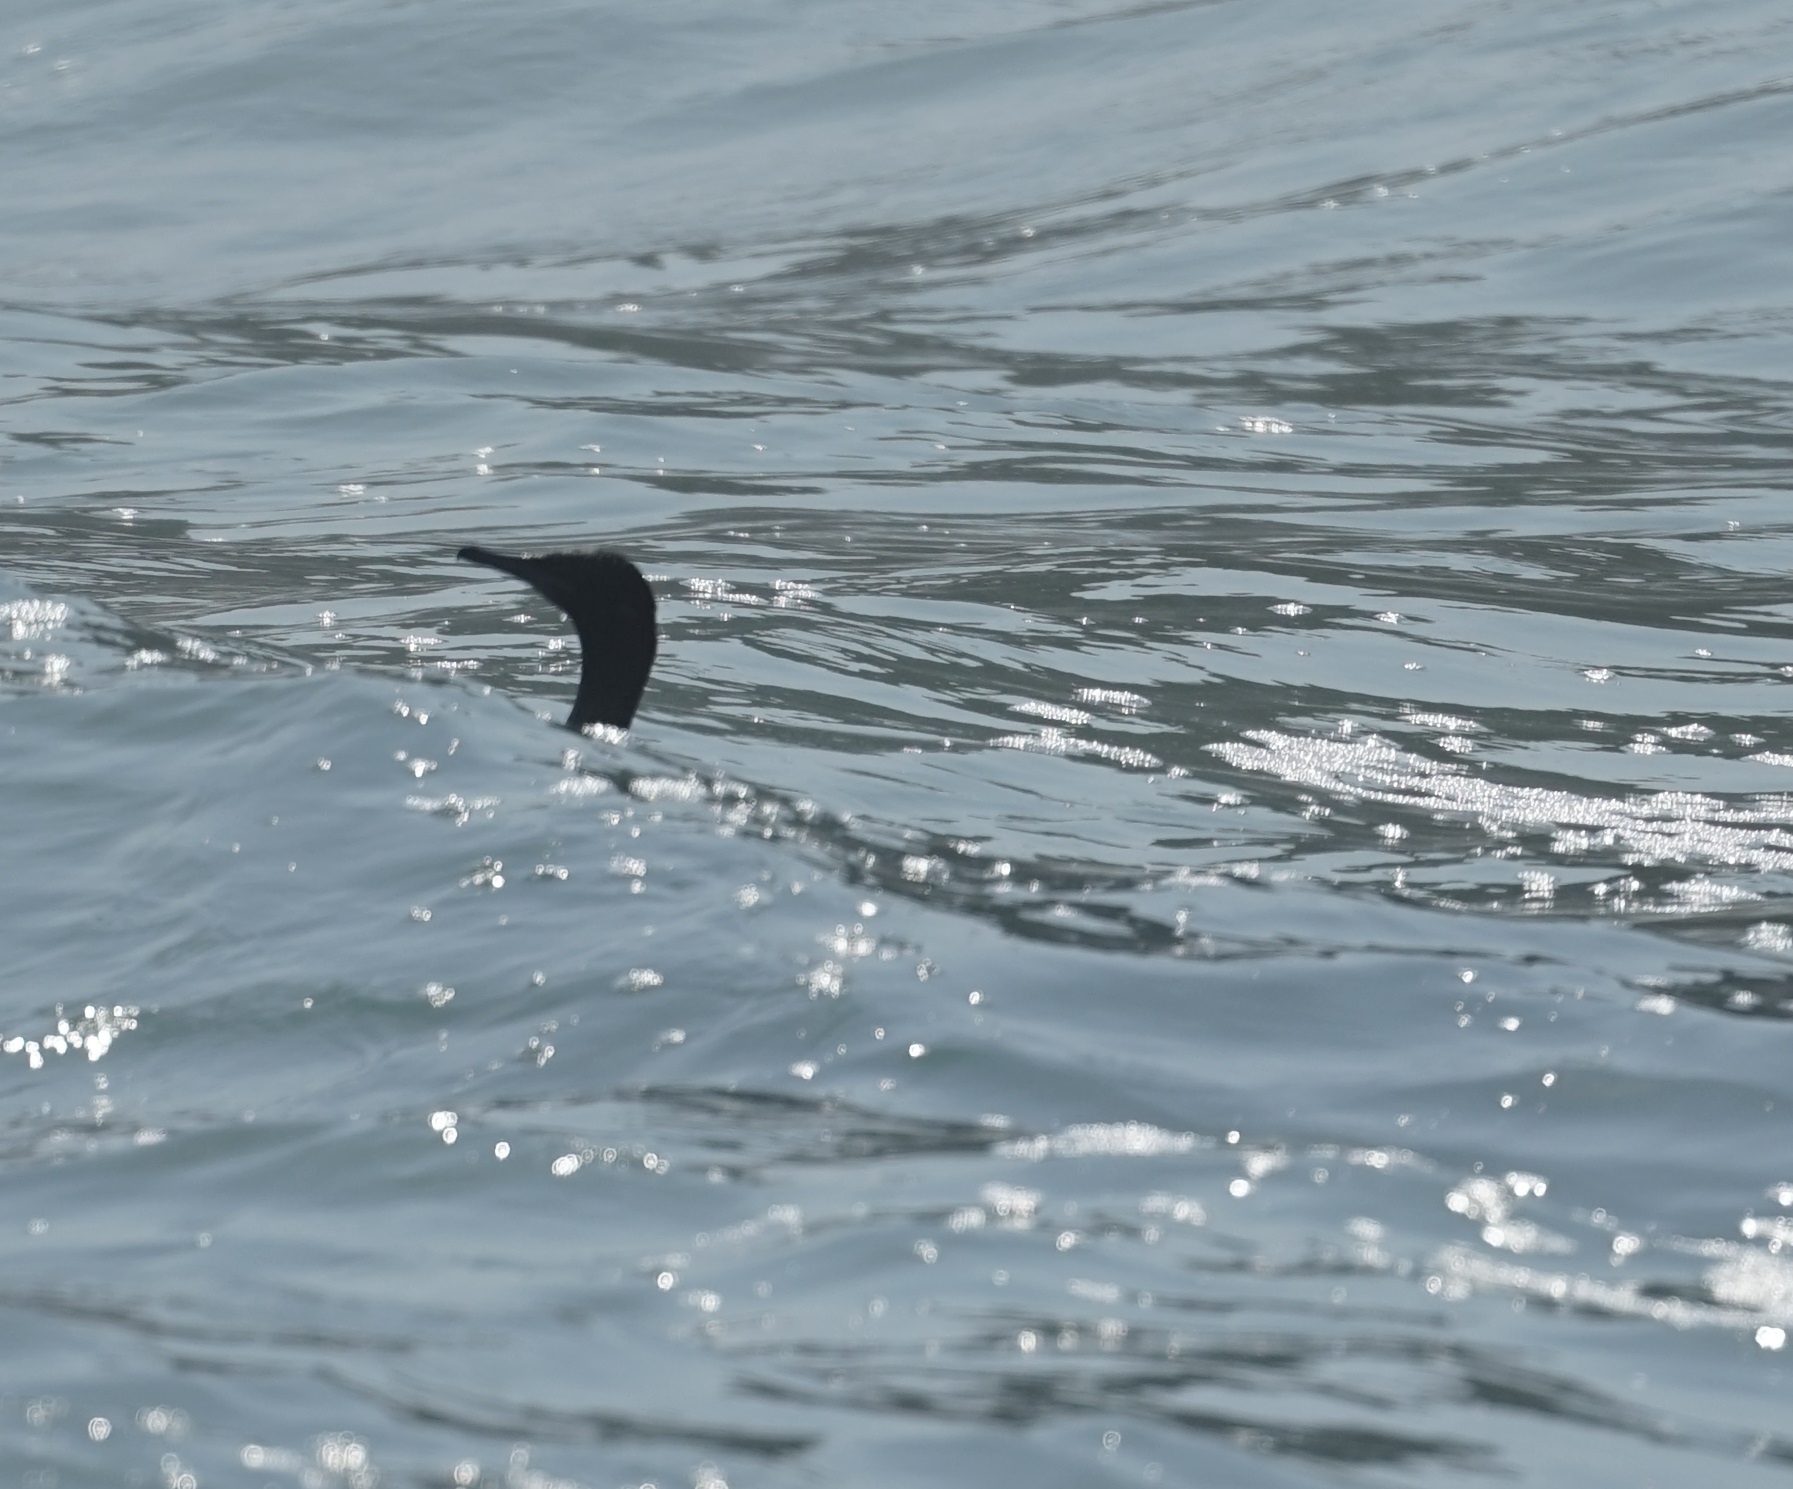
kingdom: Animalia
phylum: Chordata
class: Aves
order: Suliformes
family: Phalacrocoracidae
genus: Phalacrocorax
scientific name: Phalacrocorax sulcirostris
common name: Little black cormorant
